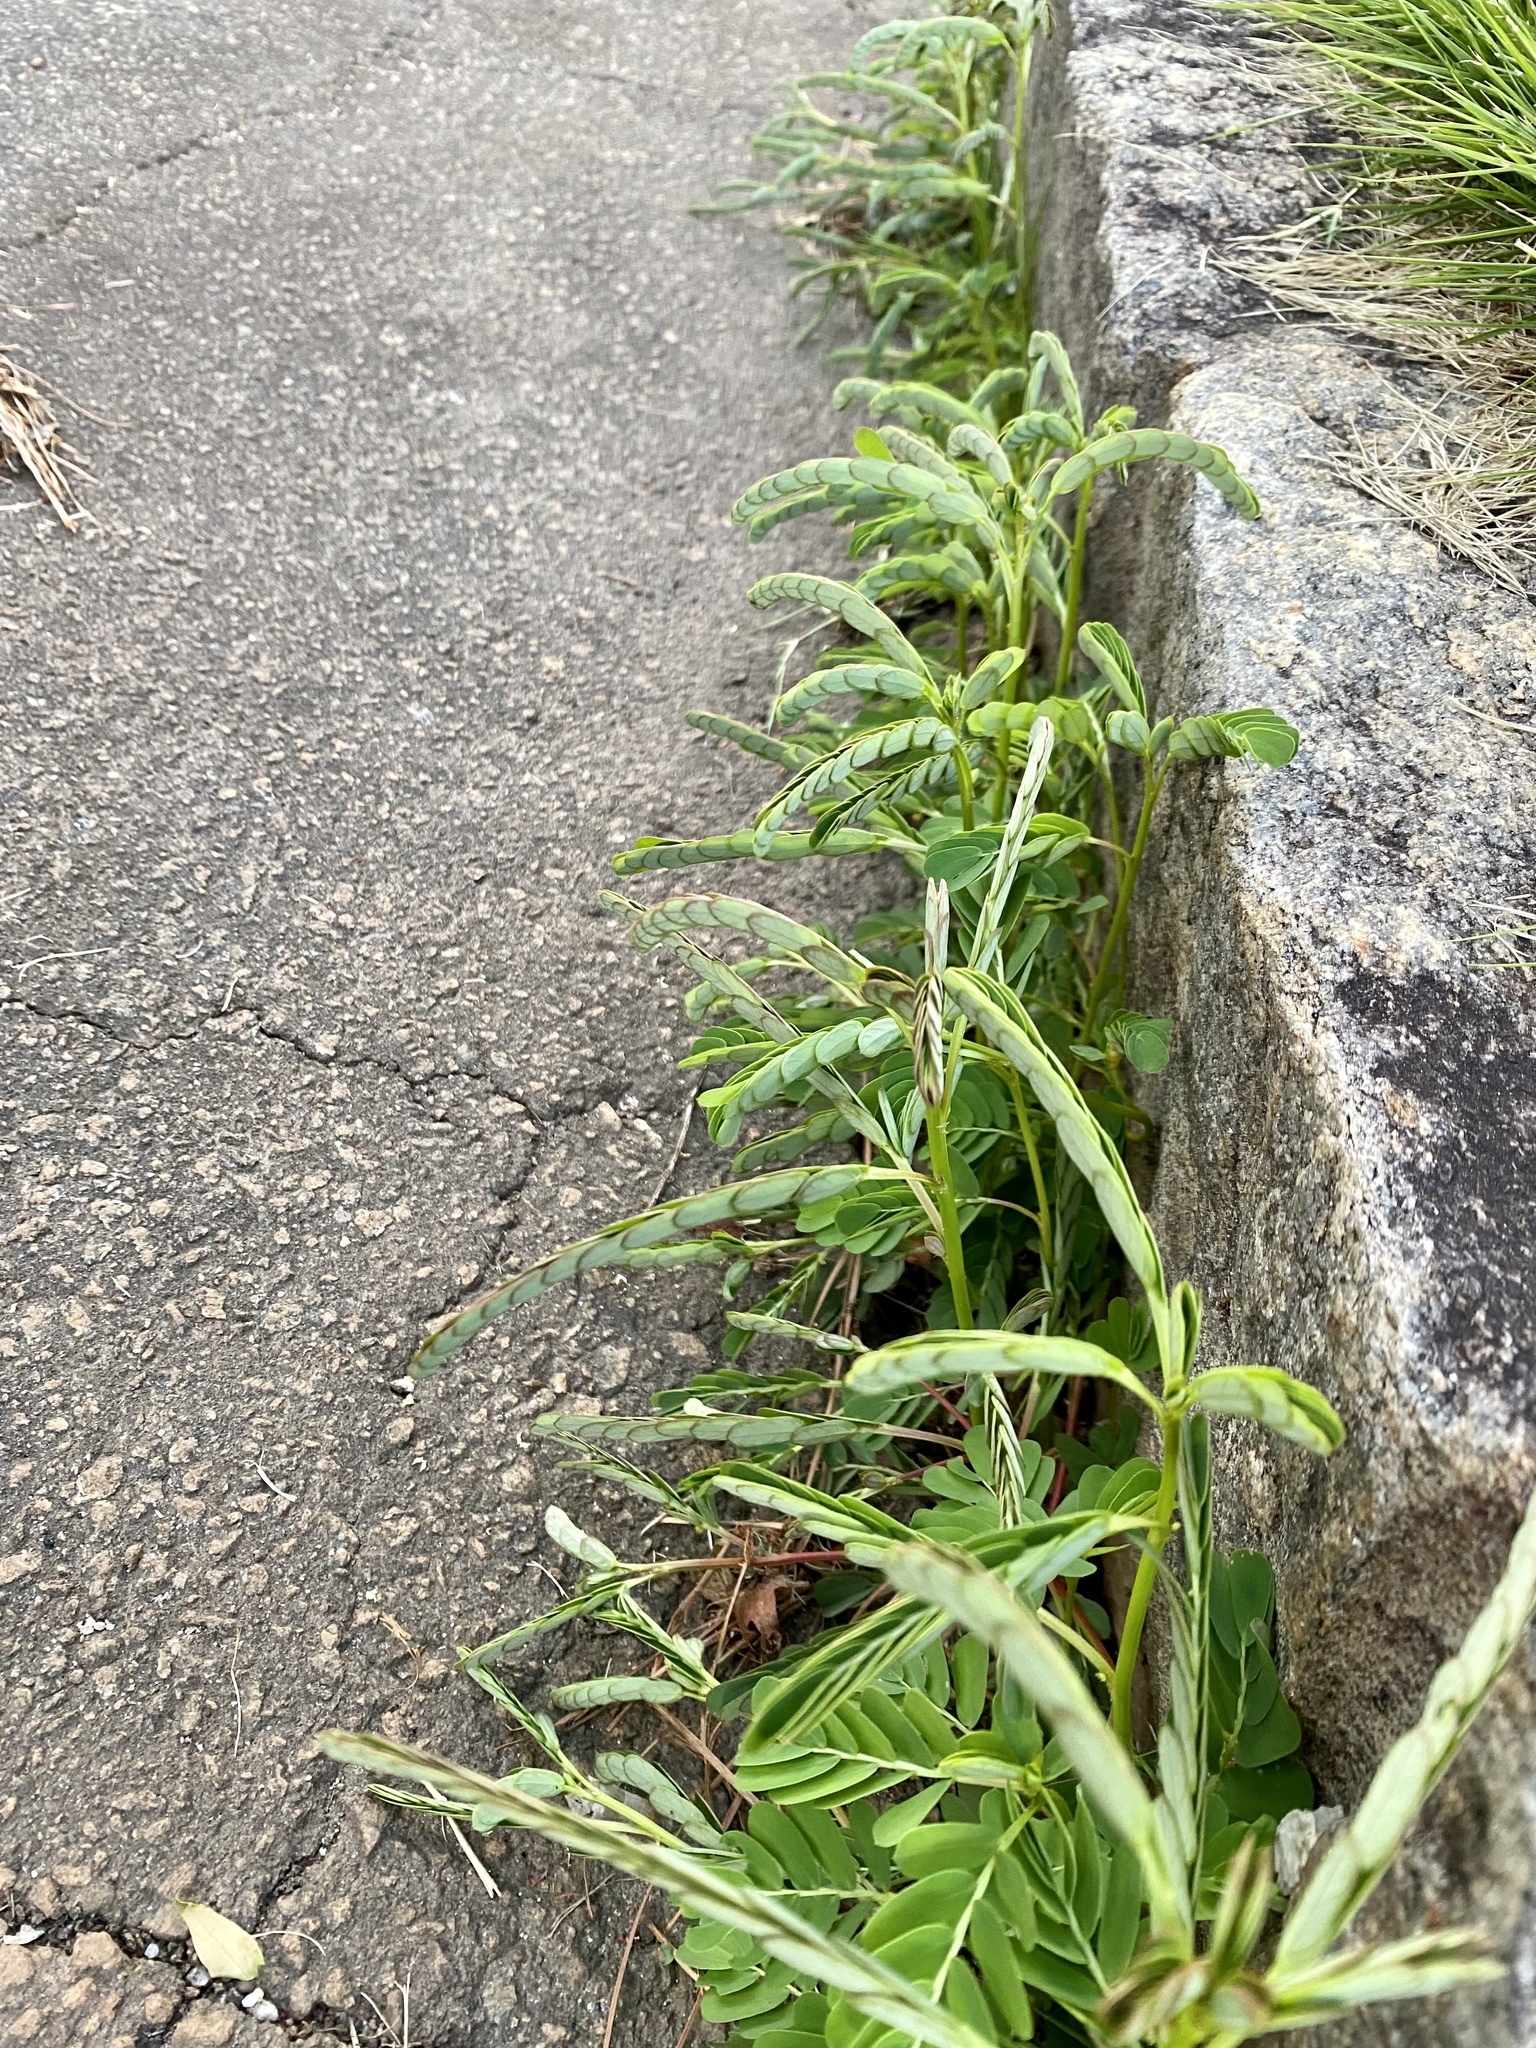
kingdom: Plantae
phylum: Tracheophyta
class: Magnoliopsida
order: Malpighiales
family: Phyllanthaceae
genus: Phyllanthus
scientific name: Phyllanthus urinaria
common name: Chamber bitter
